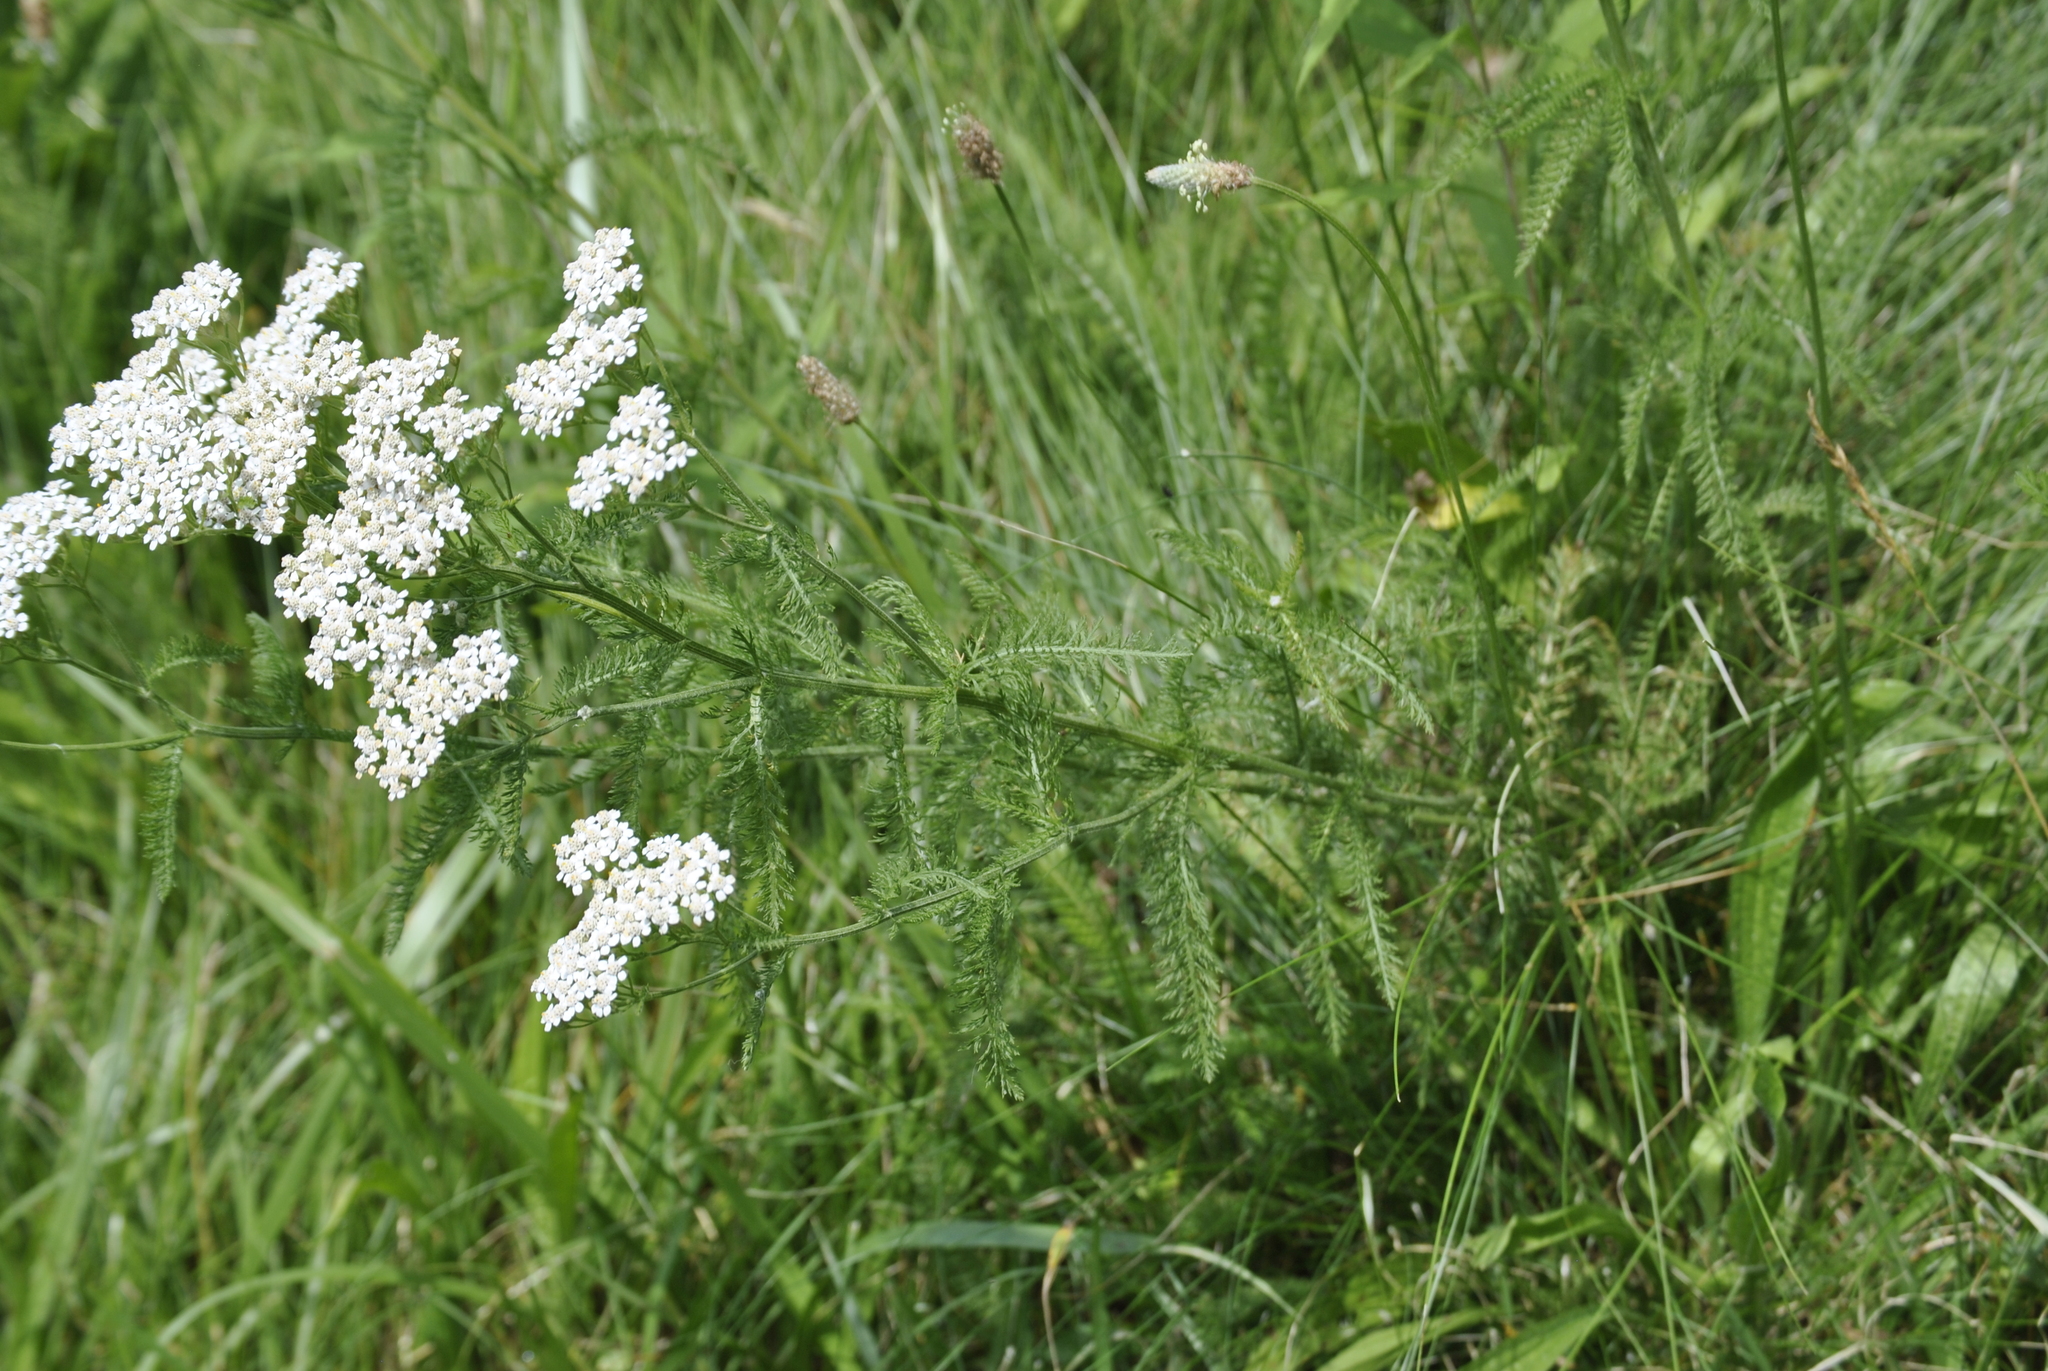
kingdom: Plantae
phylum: Tracheophyta
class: Magnoliopsida
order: Asterales
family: Asteraceae
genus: Achillea
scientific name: Achillea millefolium
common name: Yarrow
